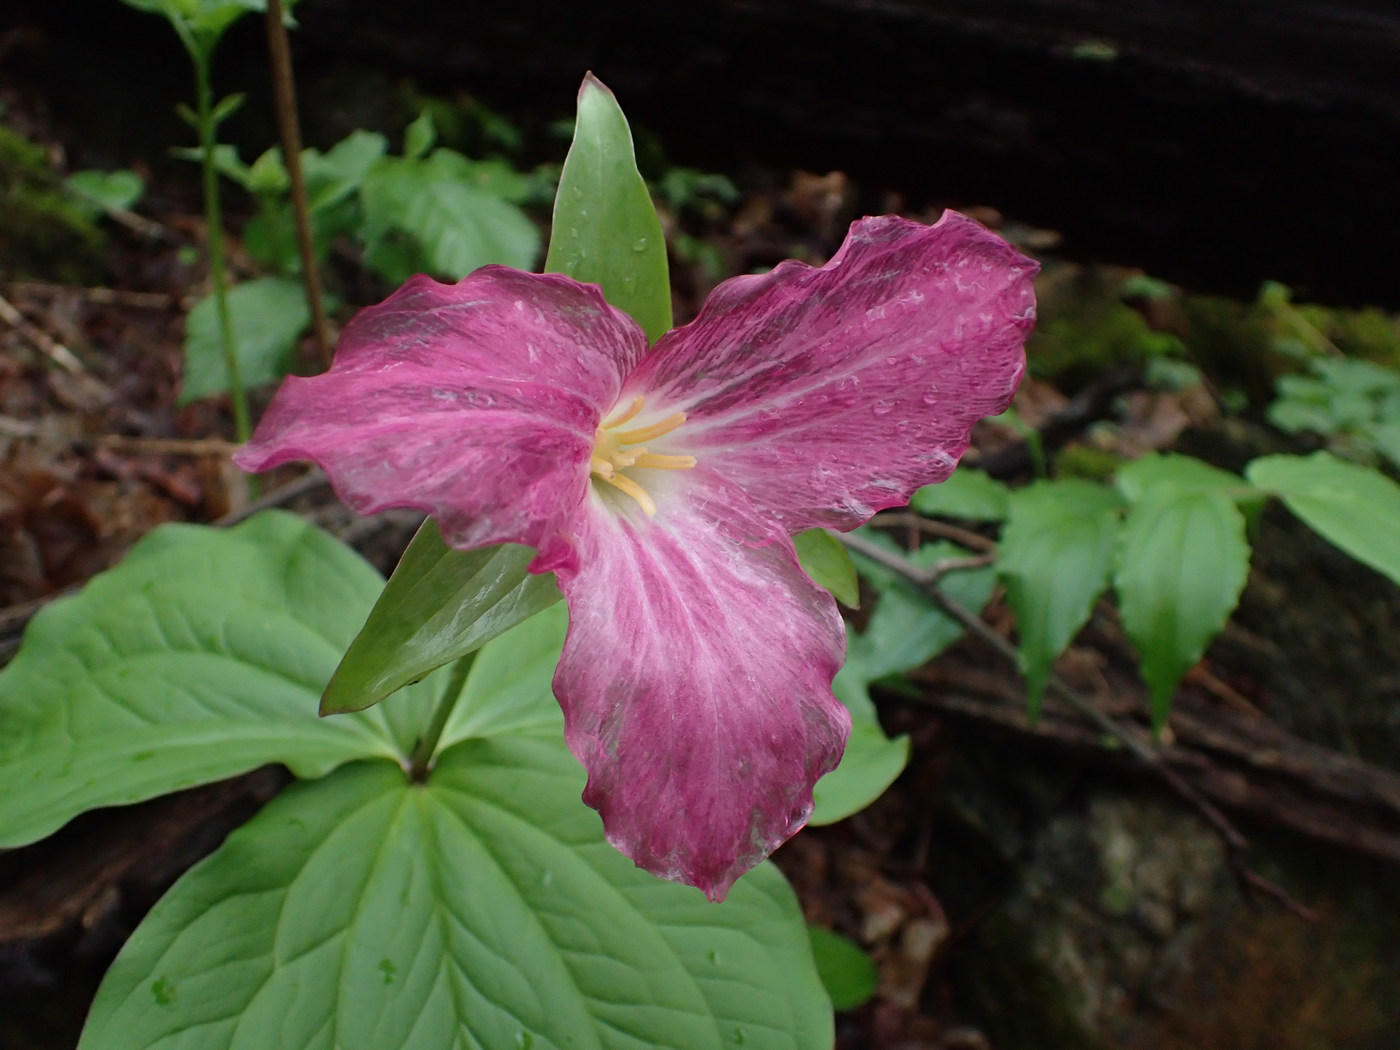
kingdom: Plantae
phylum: Tracheophyta
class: Liliopsida
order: Liliales
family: Melanthiaceae
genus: Trillium
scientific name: Trillium grandiflorum
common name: Great white trillium
